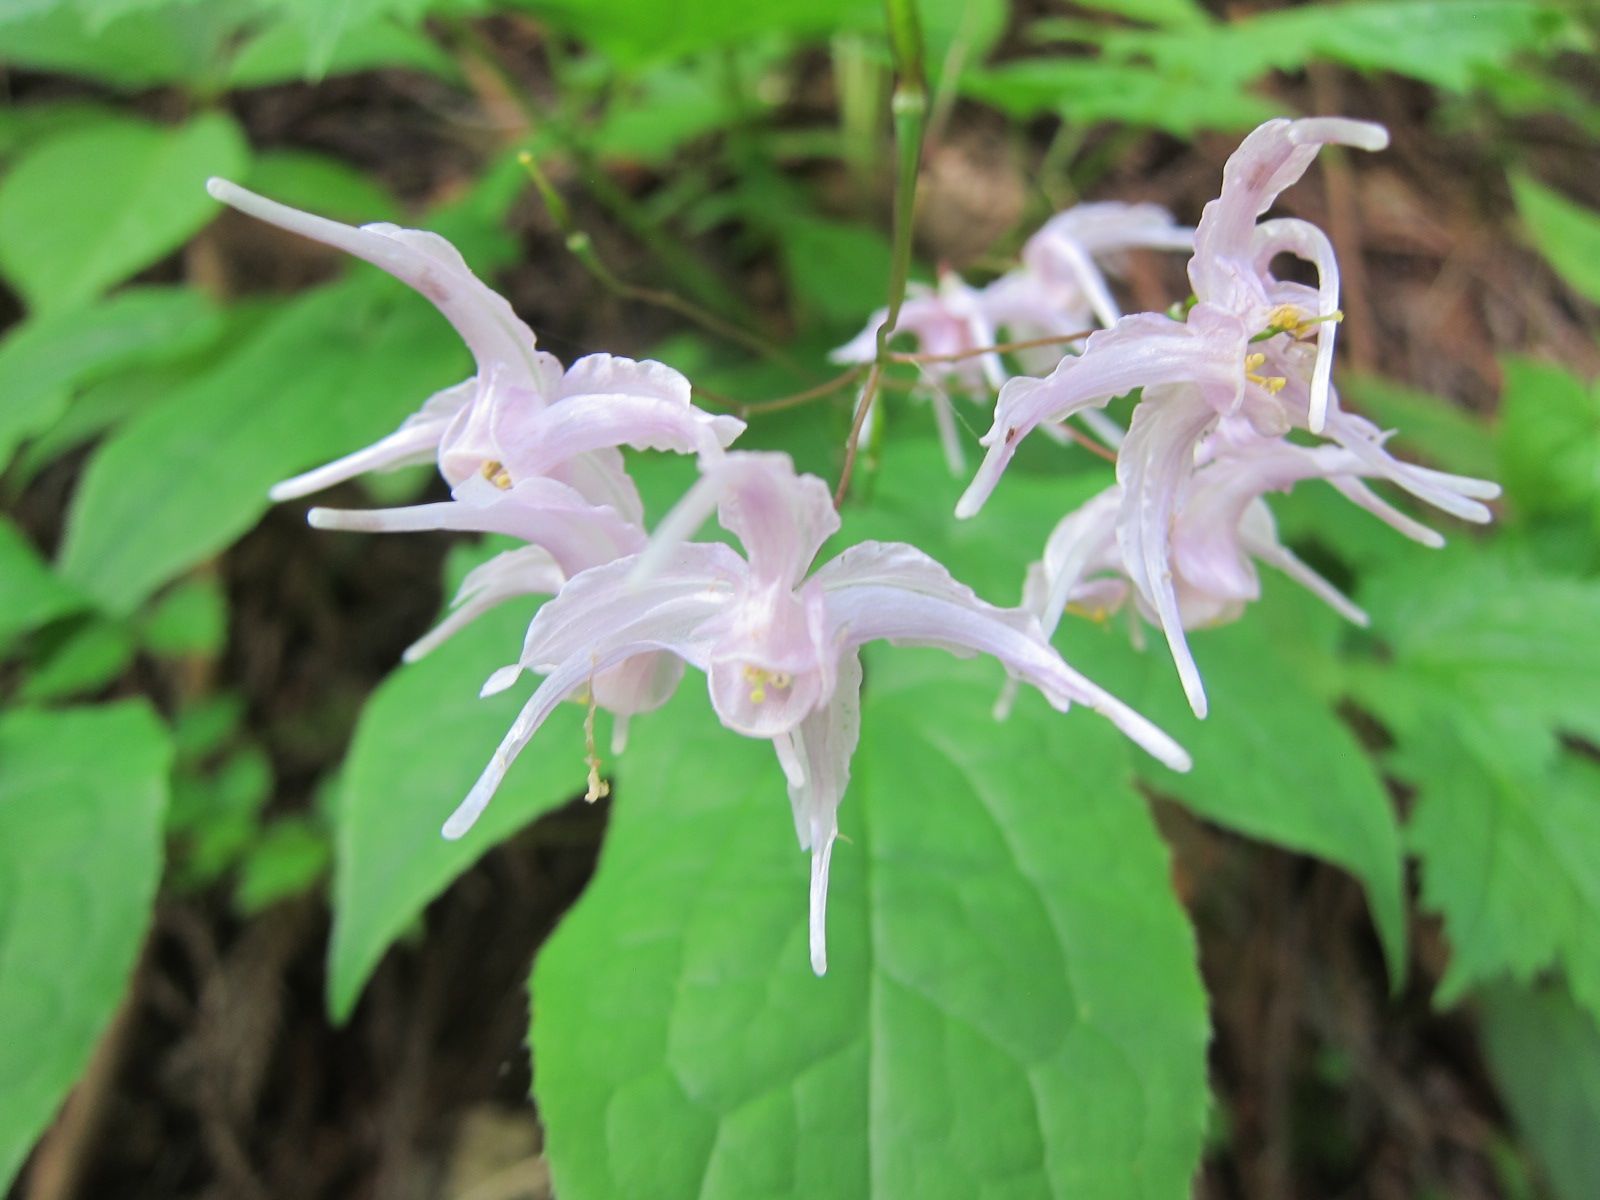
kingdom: Plantae
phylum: Tracheophyta
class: Magnoliopsida
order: Ranunculales
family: Berberidaceae
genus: Epimedium
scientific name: Epimedium grandiflorum
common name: Barrenwort
